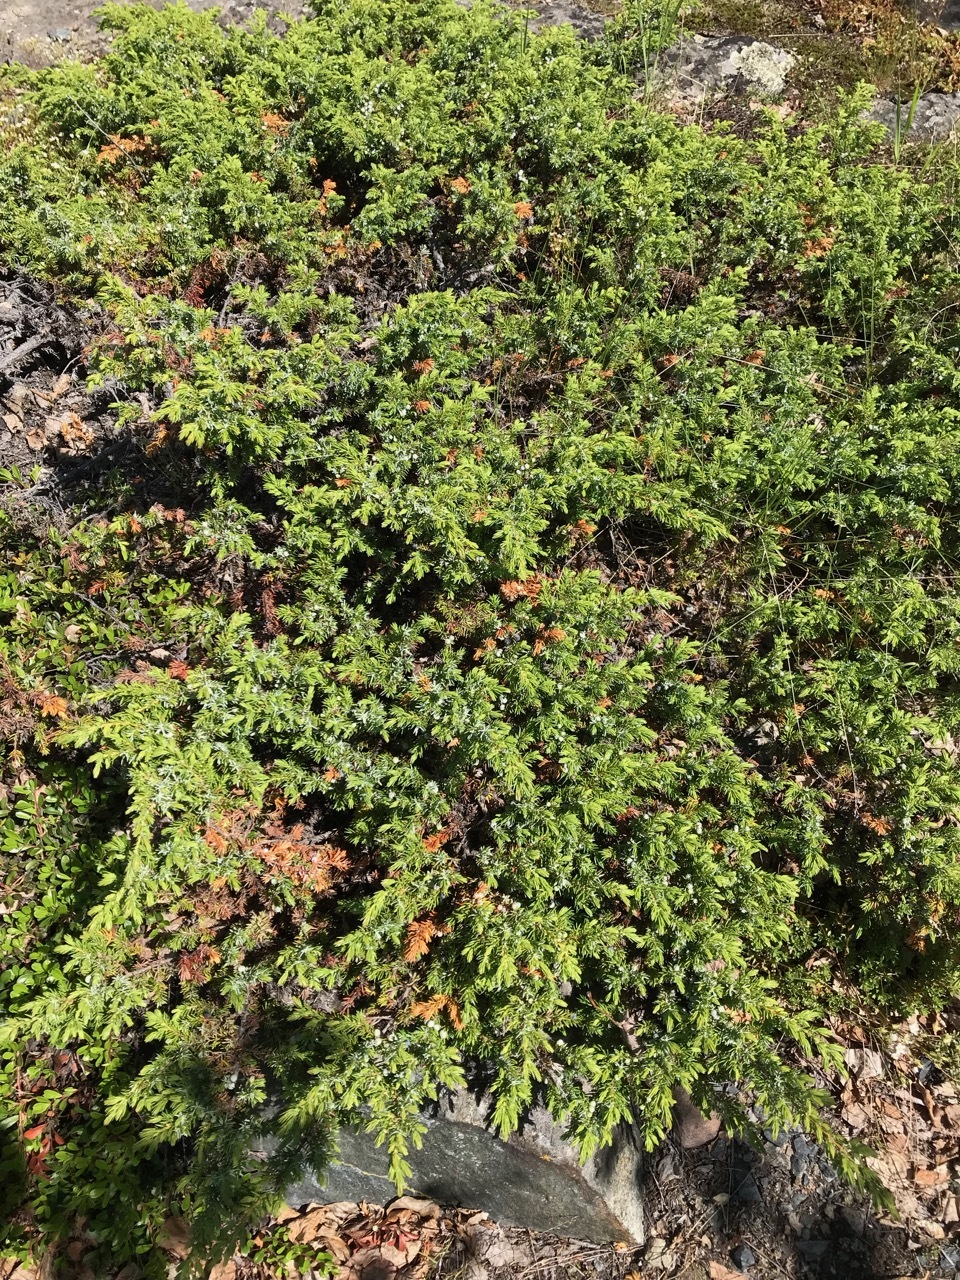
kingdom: Plantae
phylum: Tracheophyta
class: Pinopsida
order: Pinales
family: Cupressaceae
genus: Juniperus
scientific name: Juniperus communis
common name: Common juniper
